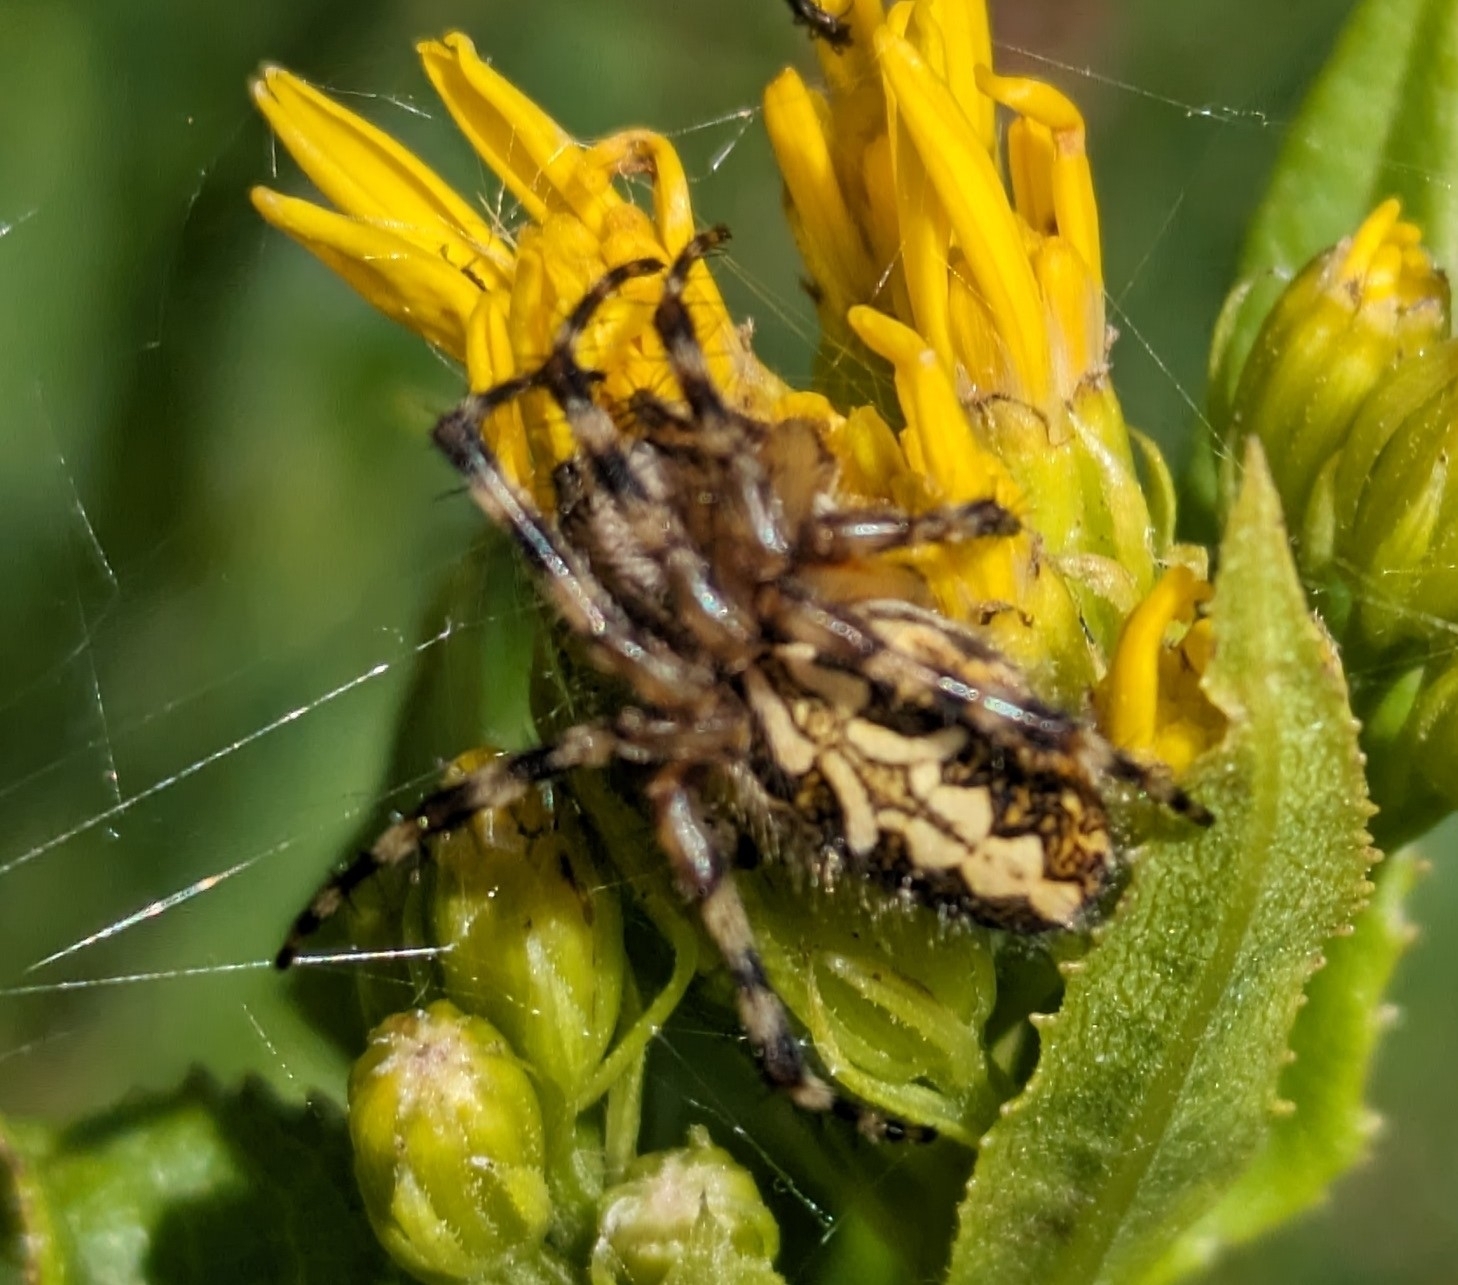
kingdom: Animalia
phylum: Arthropoda
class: Arachnida
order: Araneae
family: Araneidae
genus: Aculepeira
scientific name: Aculepeira ceropegia
